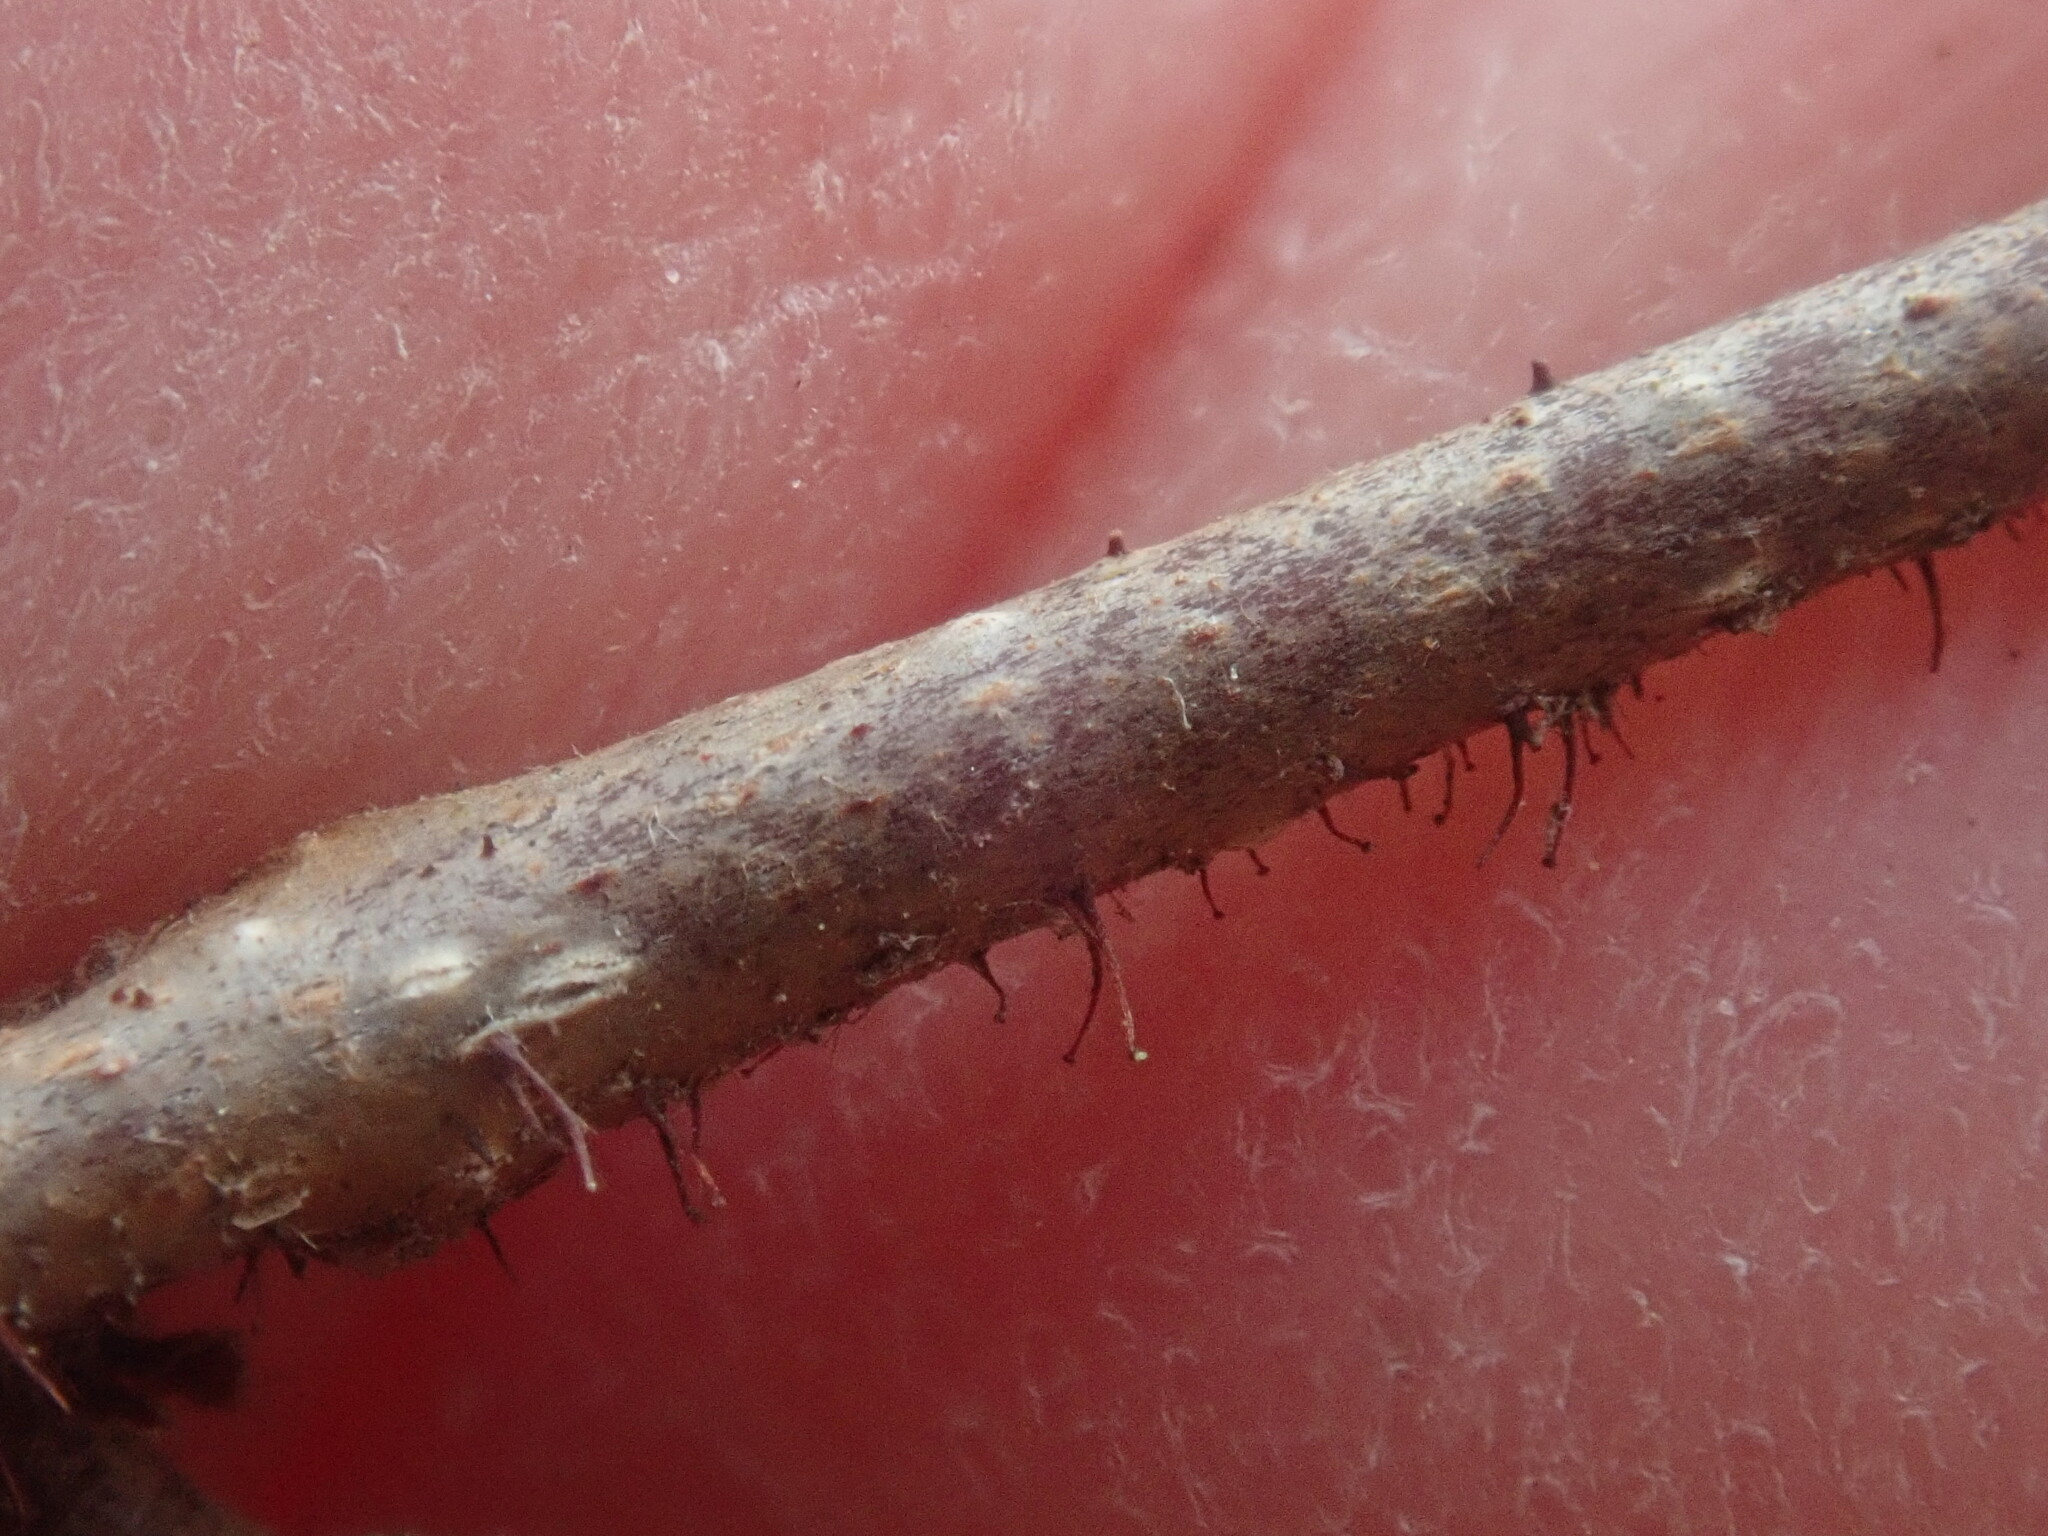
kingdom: Plantae
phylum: Tracheophyta
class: Magnoliopsida
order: Fagales
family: Betulaceae
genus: Corylus
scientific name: Corylus americana
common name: American hazel
